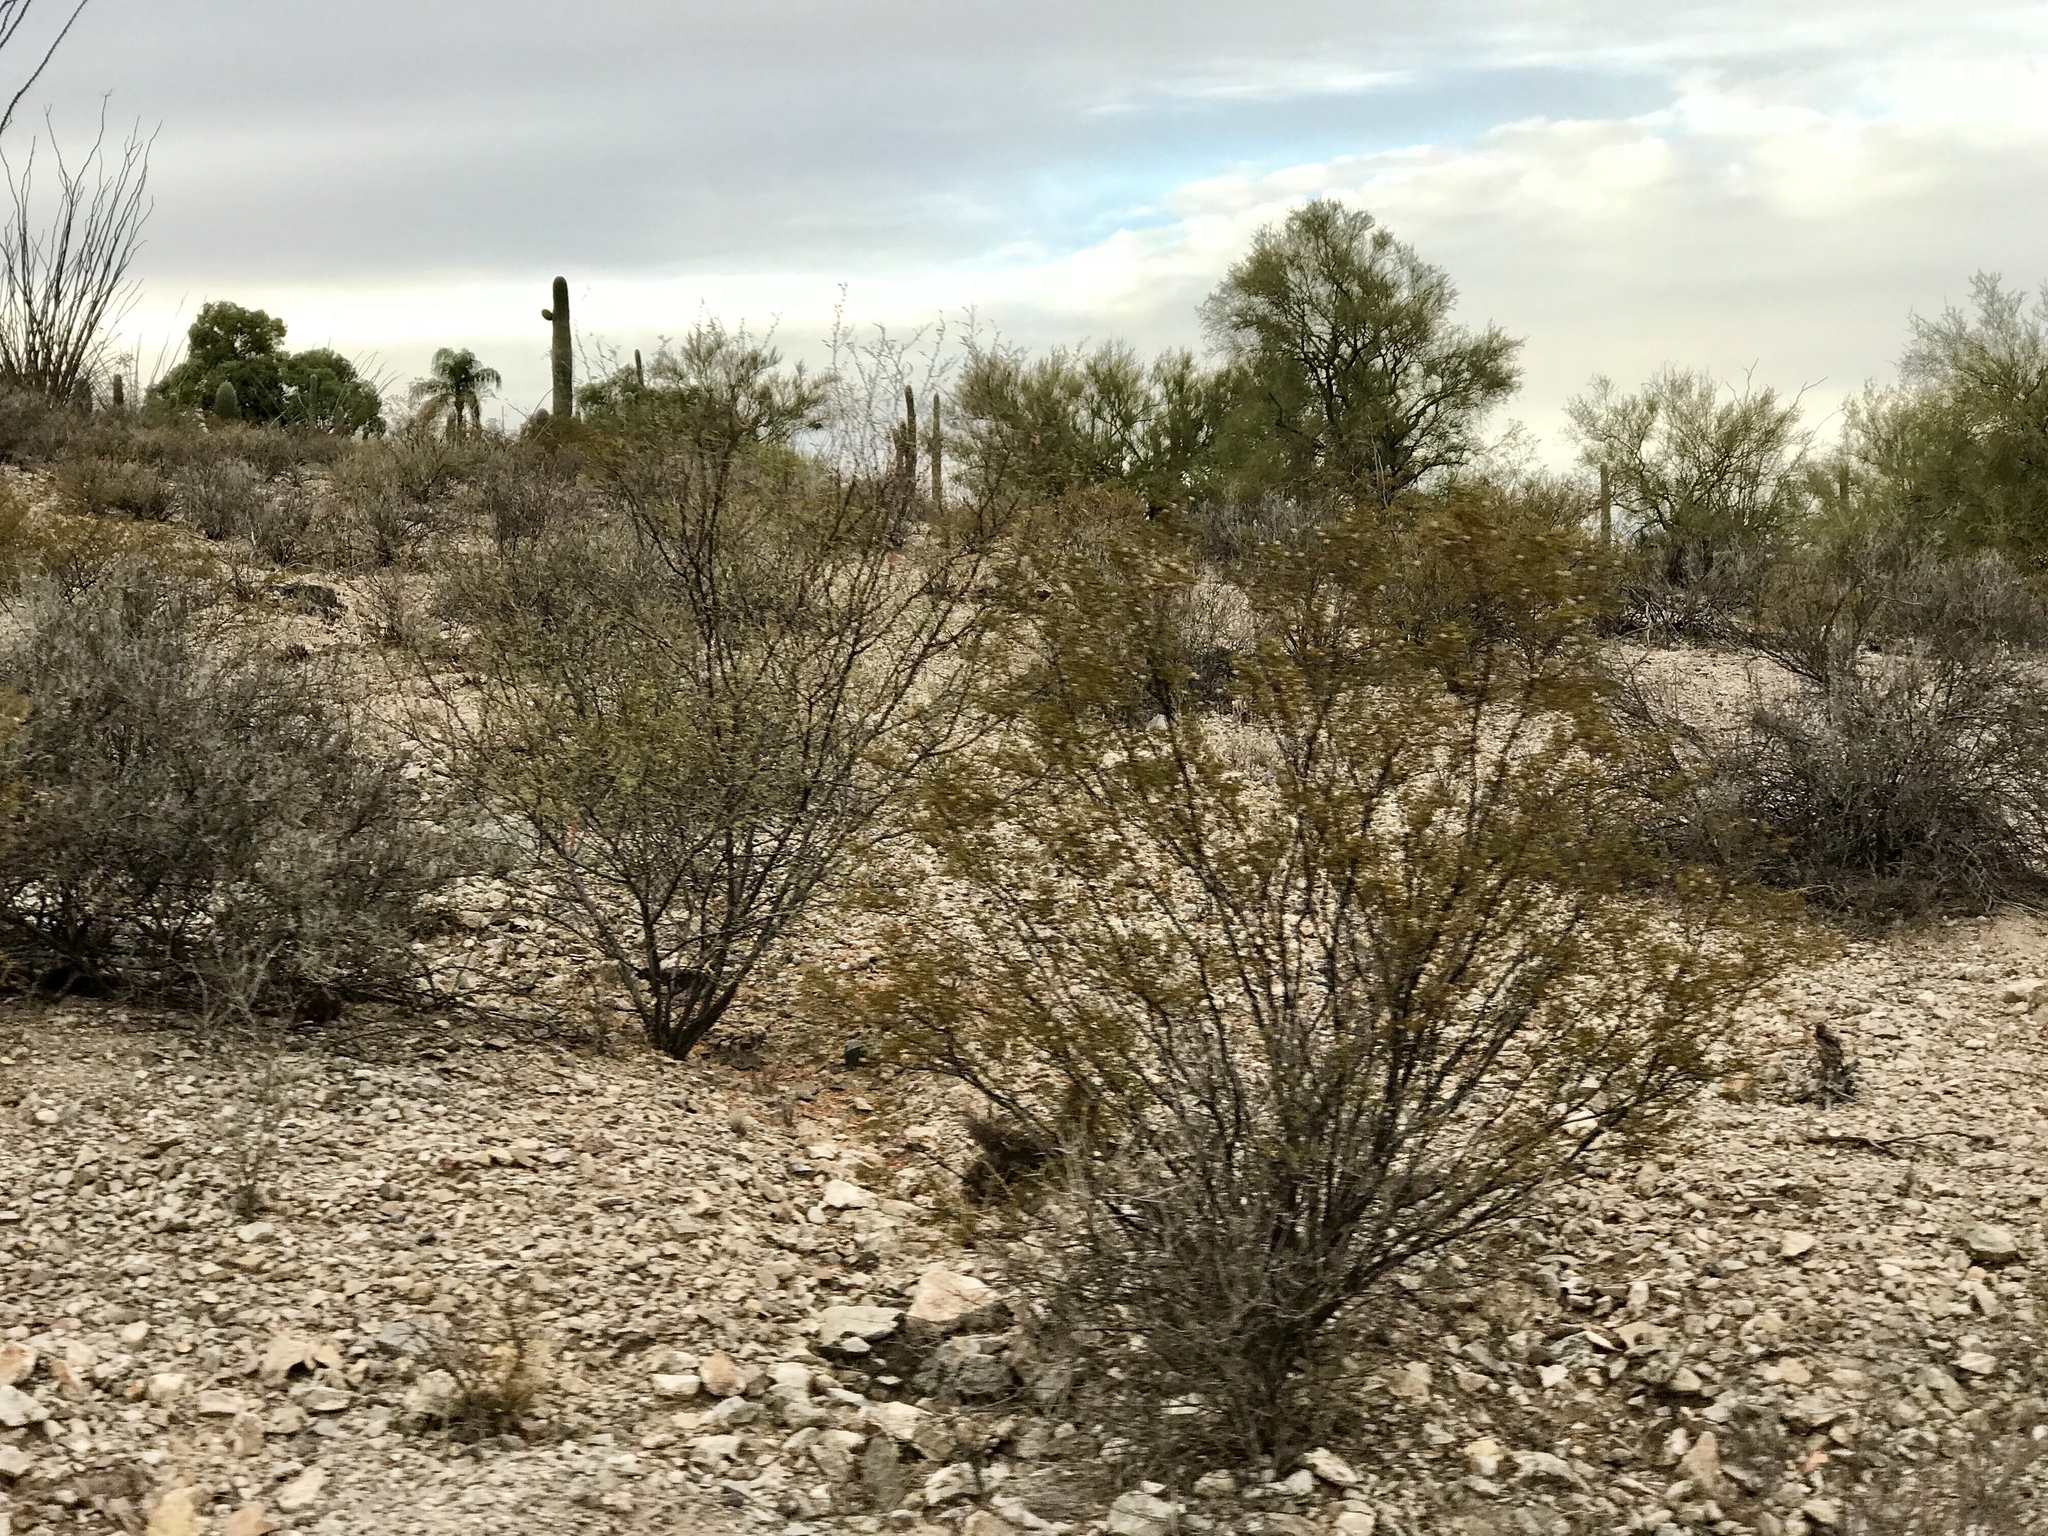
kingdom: Plantae
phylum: Tracheophyta
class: Magnoliopsida
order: Zygophyllales
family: Zygophyllaceae
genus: Larrea
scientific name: Larrea tridentata
